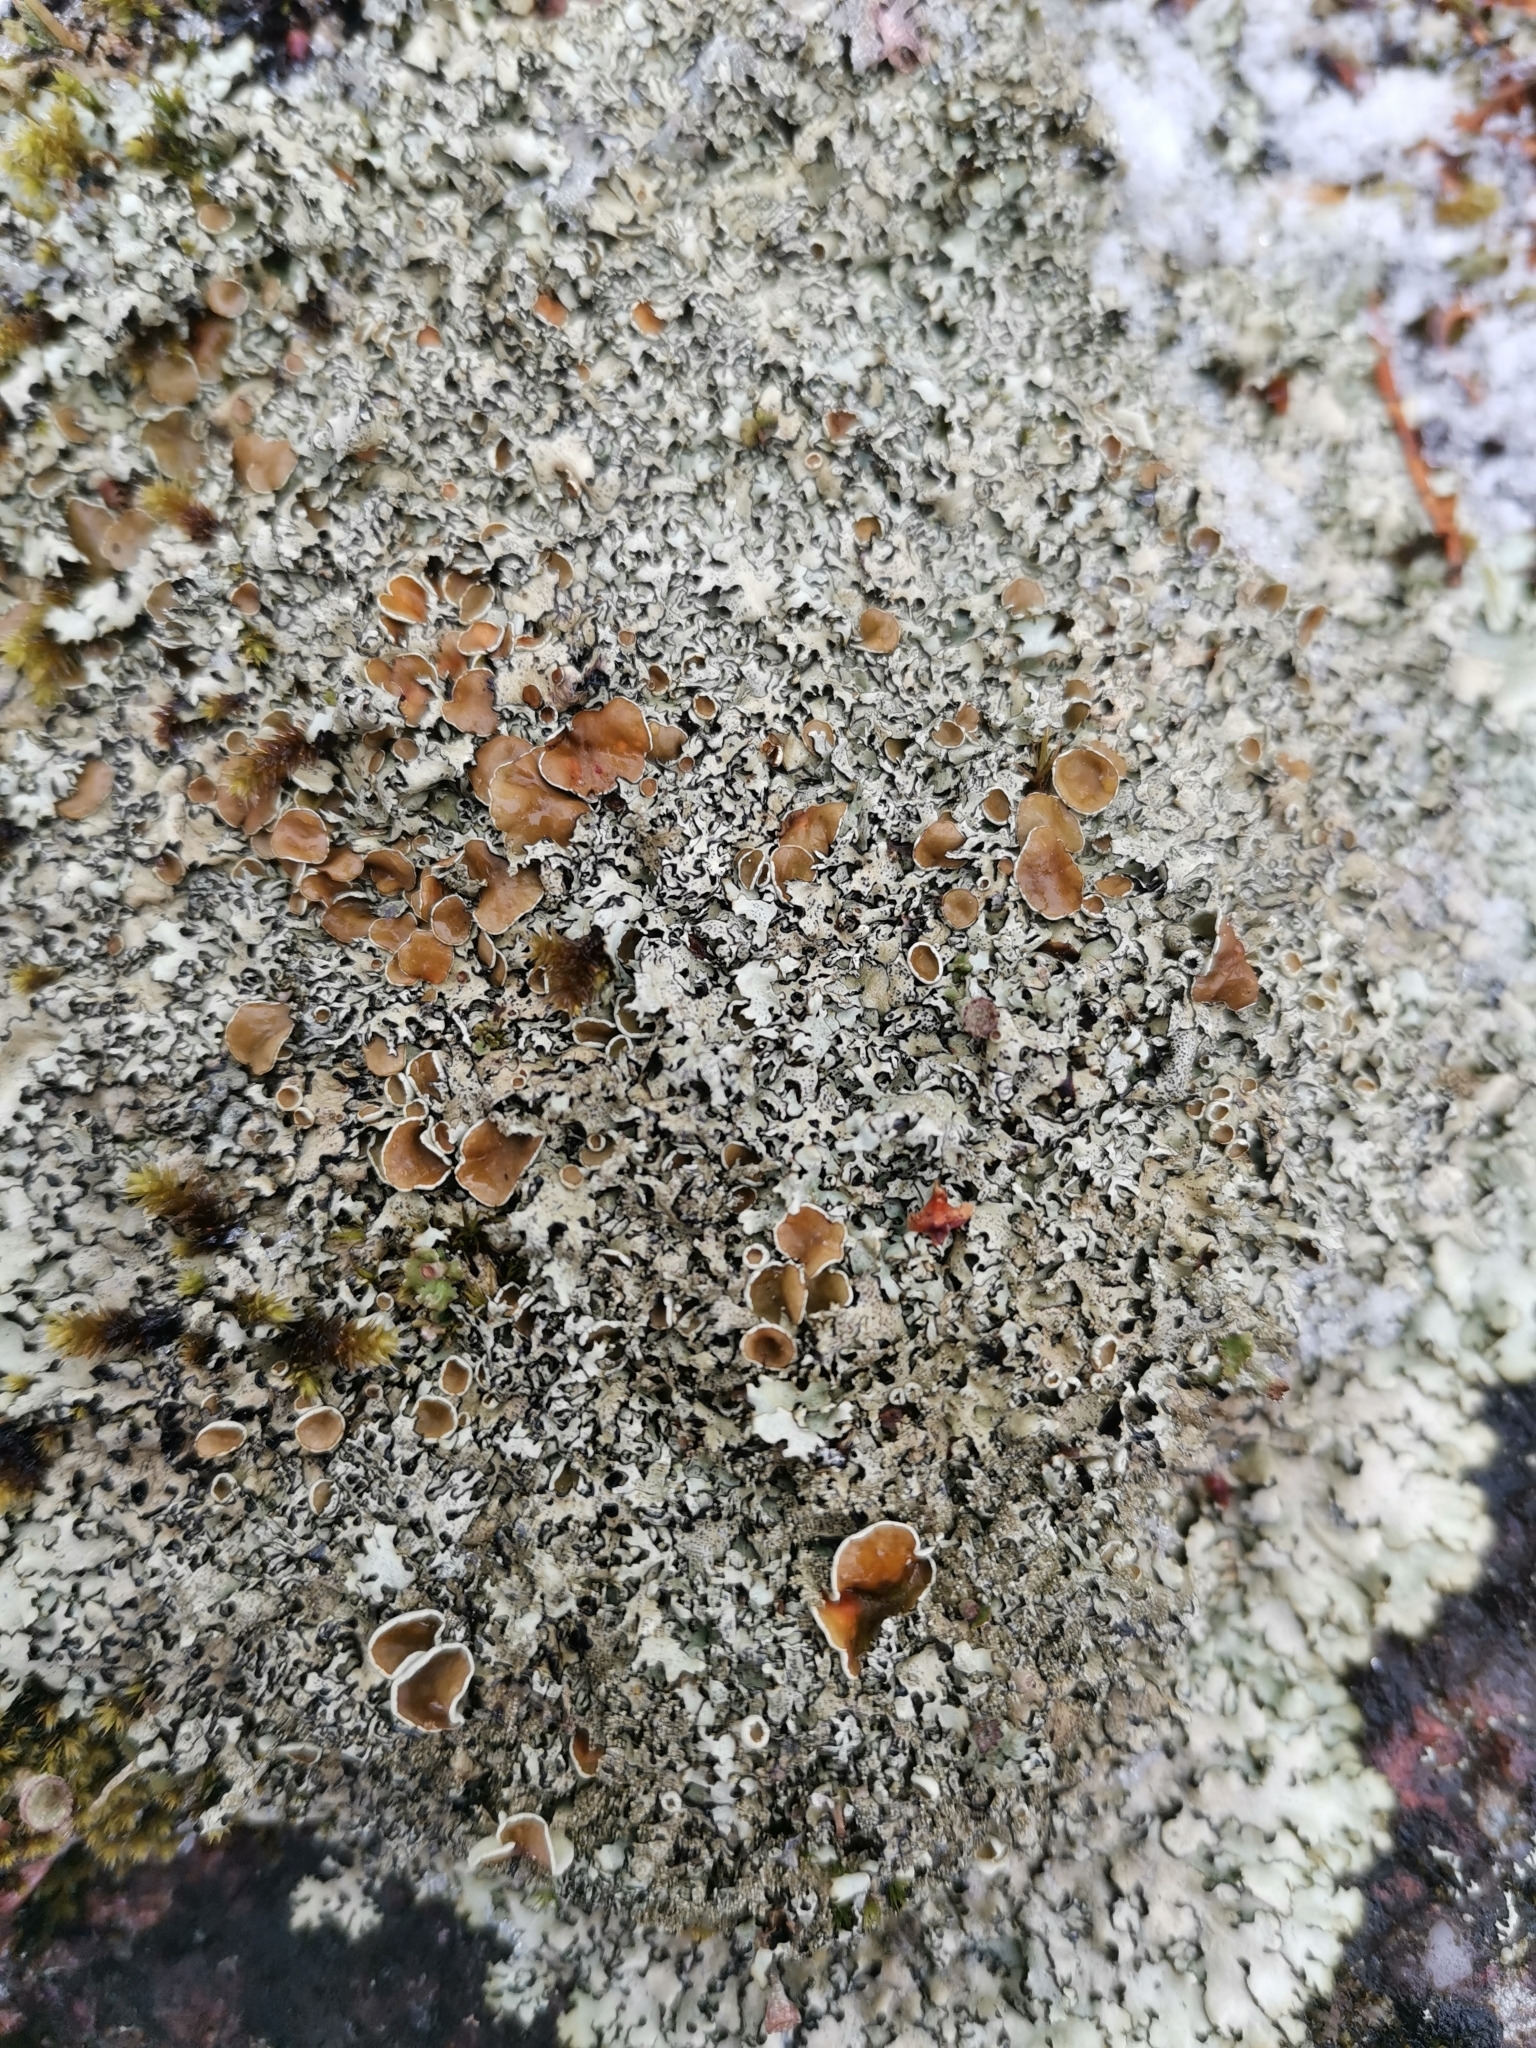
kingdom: Fungi
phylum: Ascomycota
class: Lecanoromycetes
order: Lecanorales
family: Parmeliaceae
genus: Xanthoparmelia
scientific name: Xanthoparmelia stenophylla
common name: Shingled rock shield
